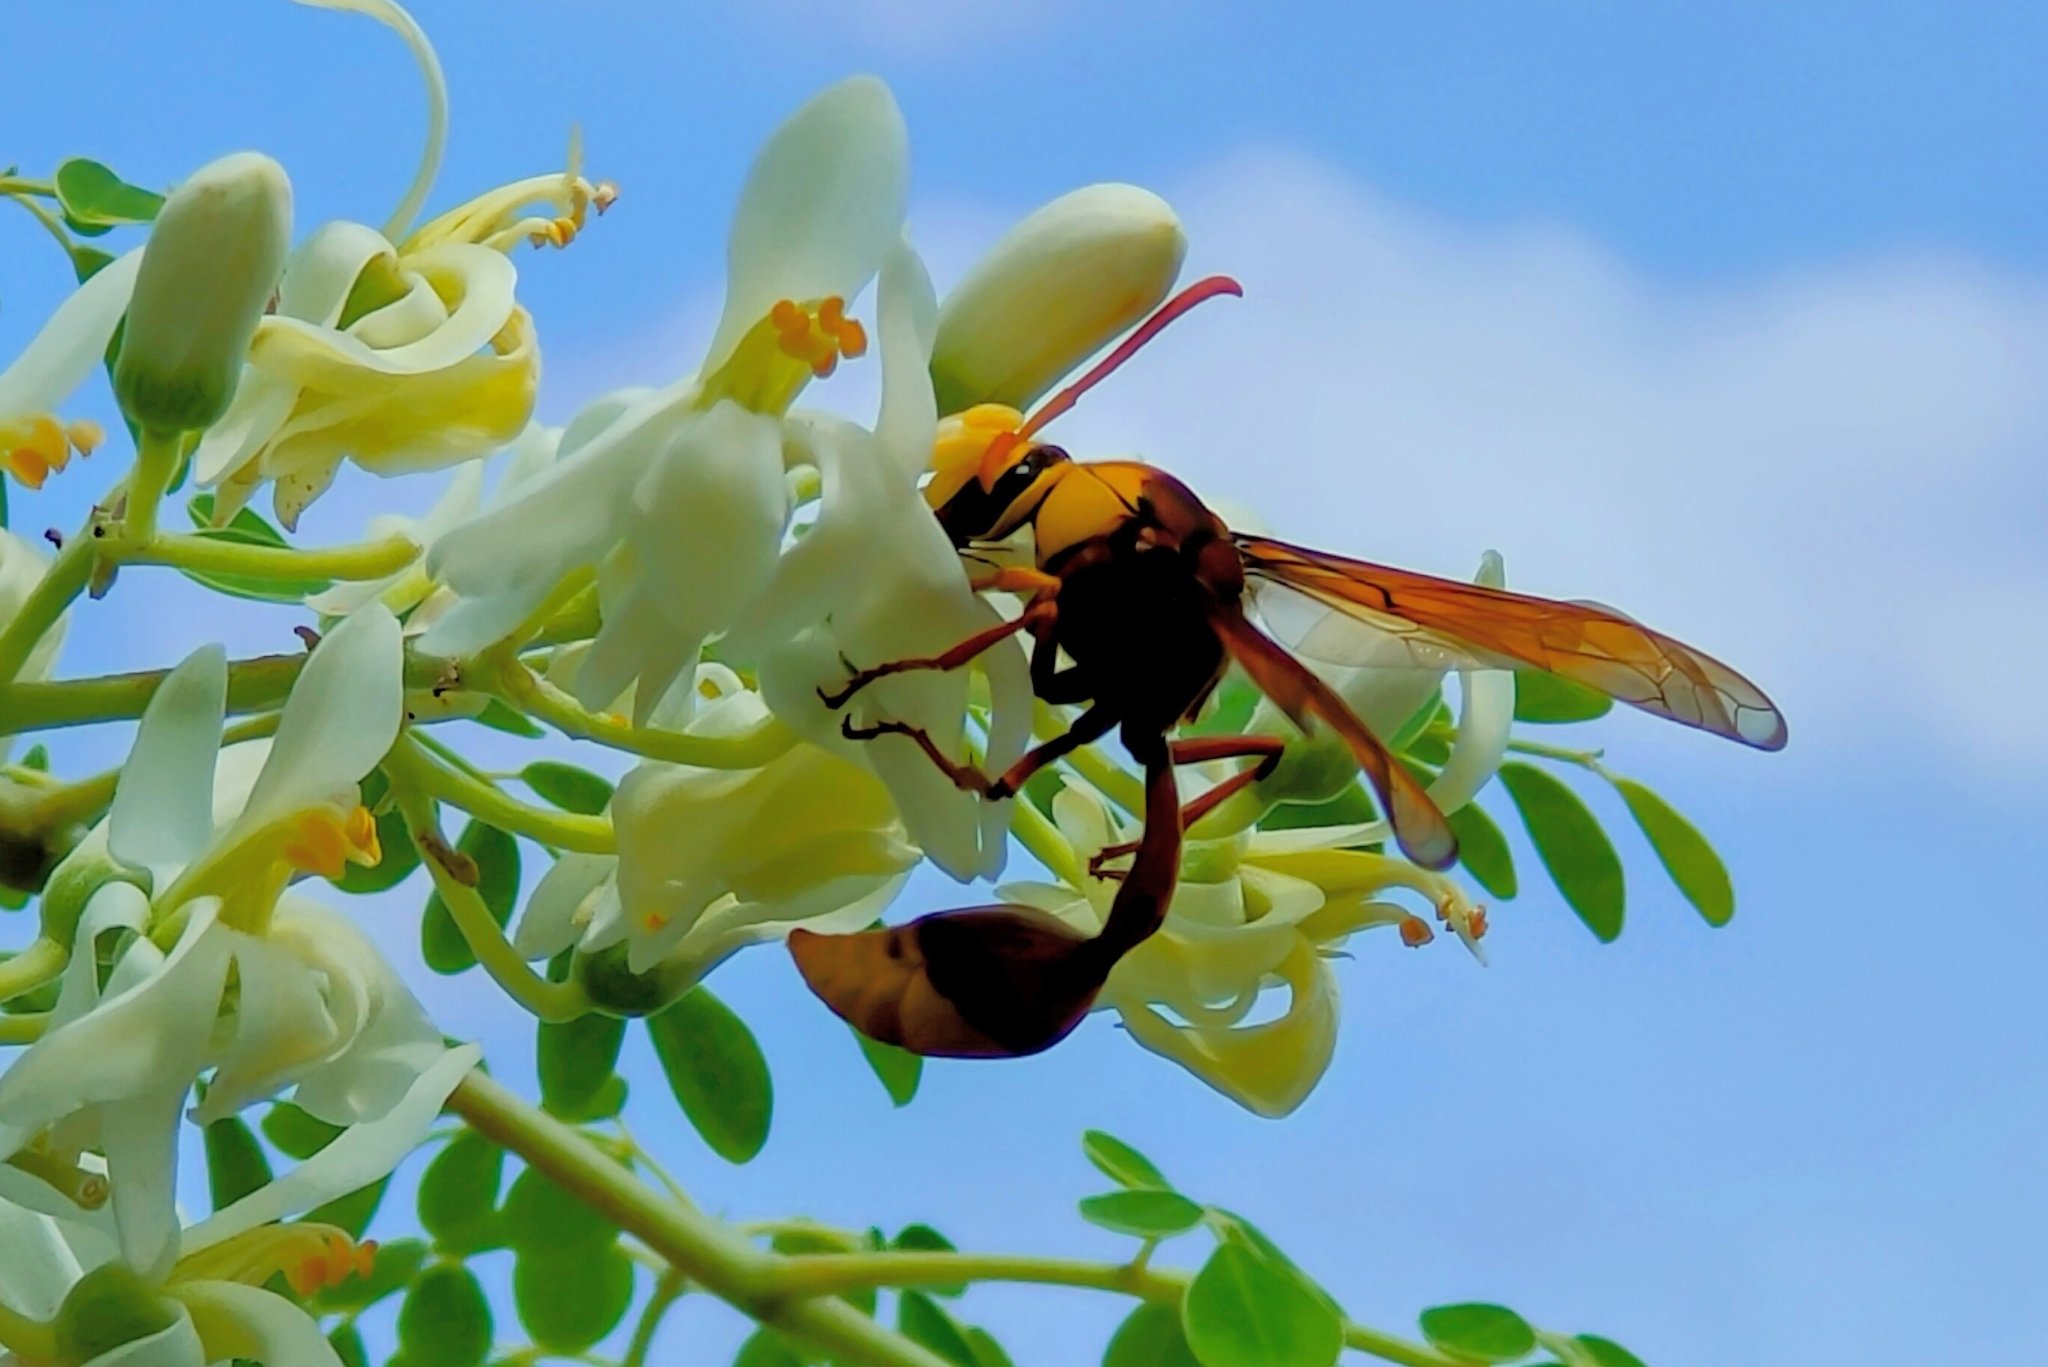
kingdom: Animalia
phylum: Arthropoda
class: Insecta
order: Hymenoptera
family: Eumenidae
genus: Delta
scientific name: Delta pyriforme
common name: Wasp
